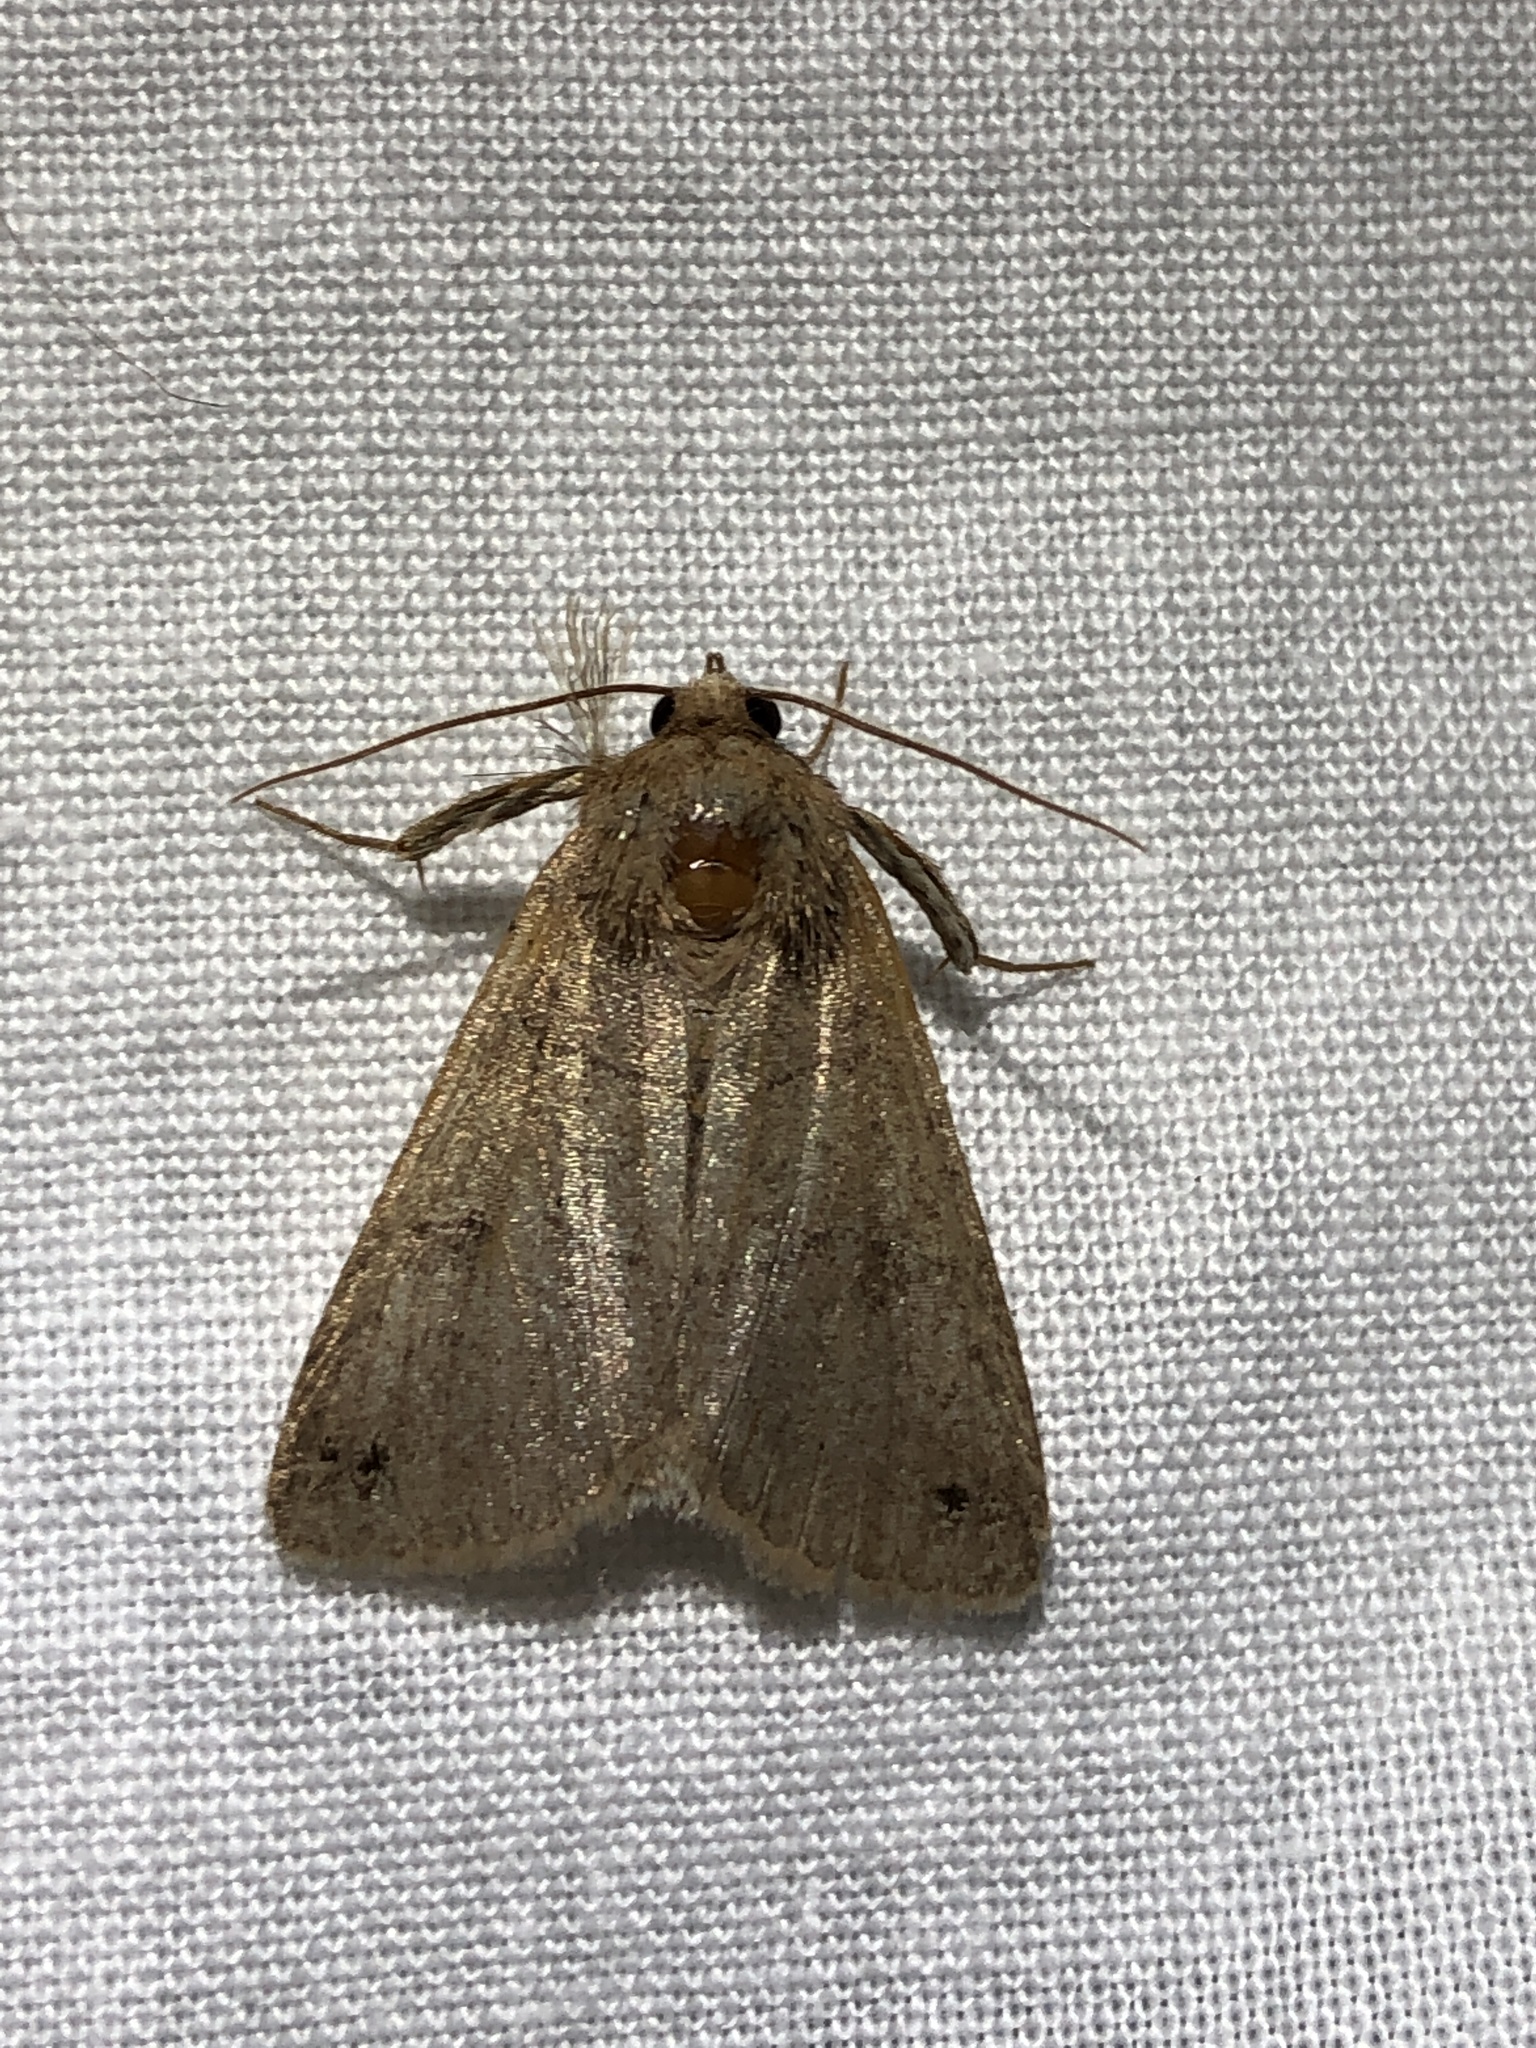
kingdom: Animalia
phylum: Arthropoda
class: Insecta
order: Lepidoptera
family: Erebidae
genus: Cissusa
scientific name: Cissusa spadix
